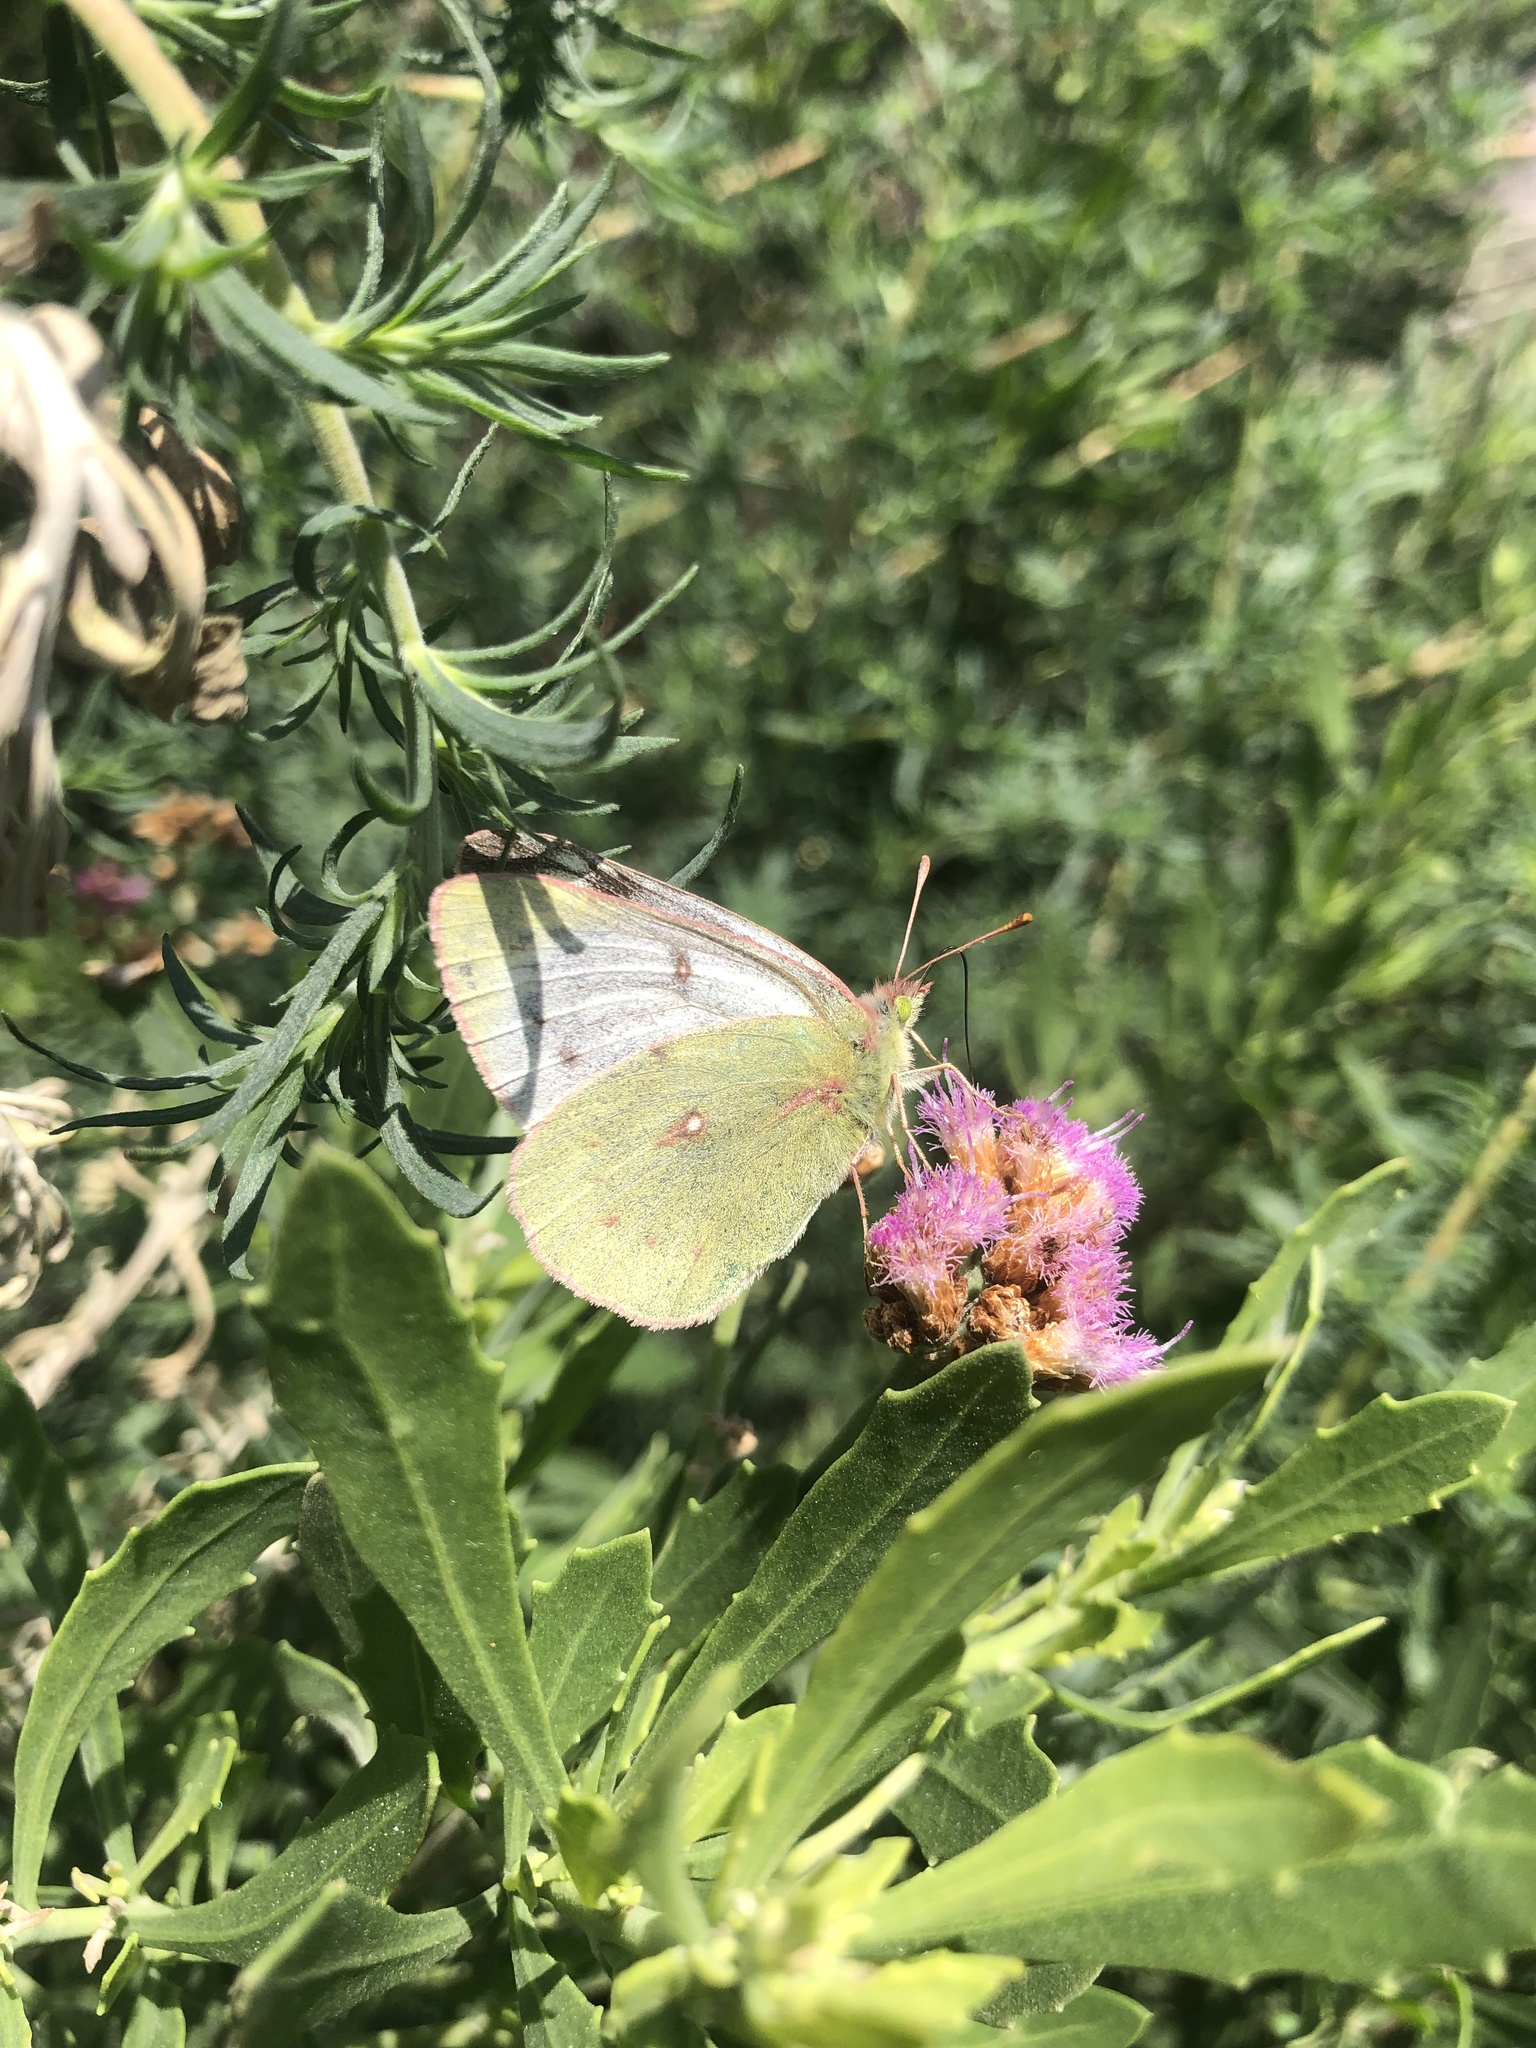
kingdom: Animalia
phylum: Arthropoda
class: Insecta
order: Lepidoptera
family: Pieridae
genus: Colias
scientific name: Colias vauthierii
